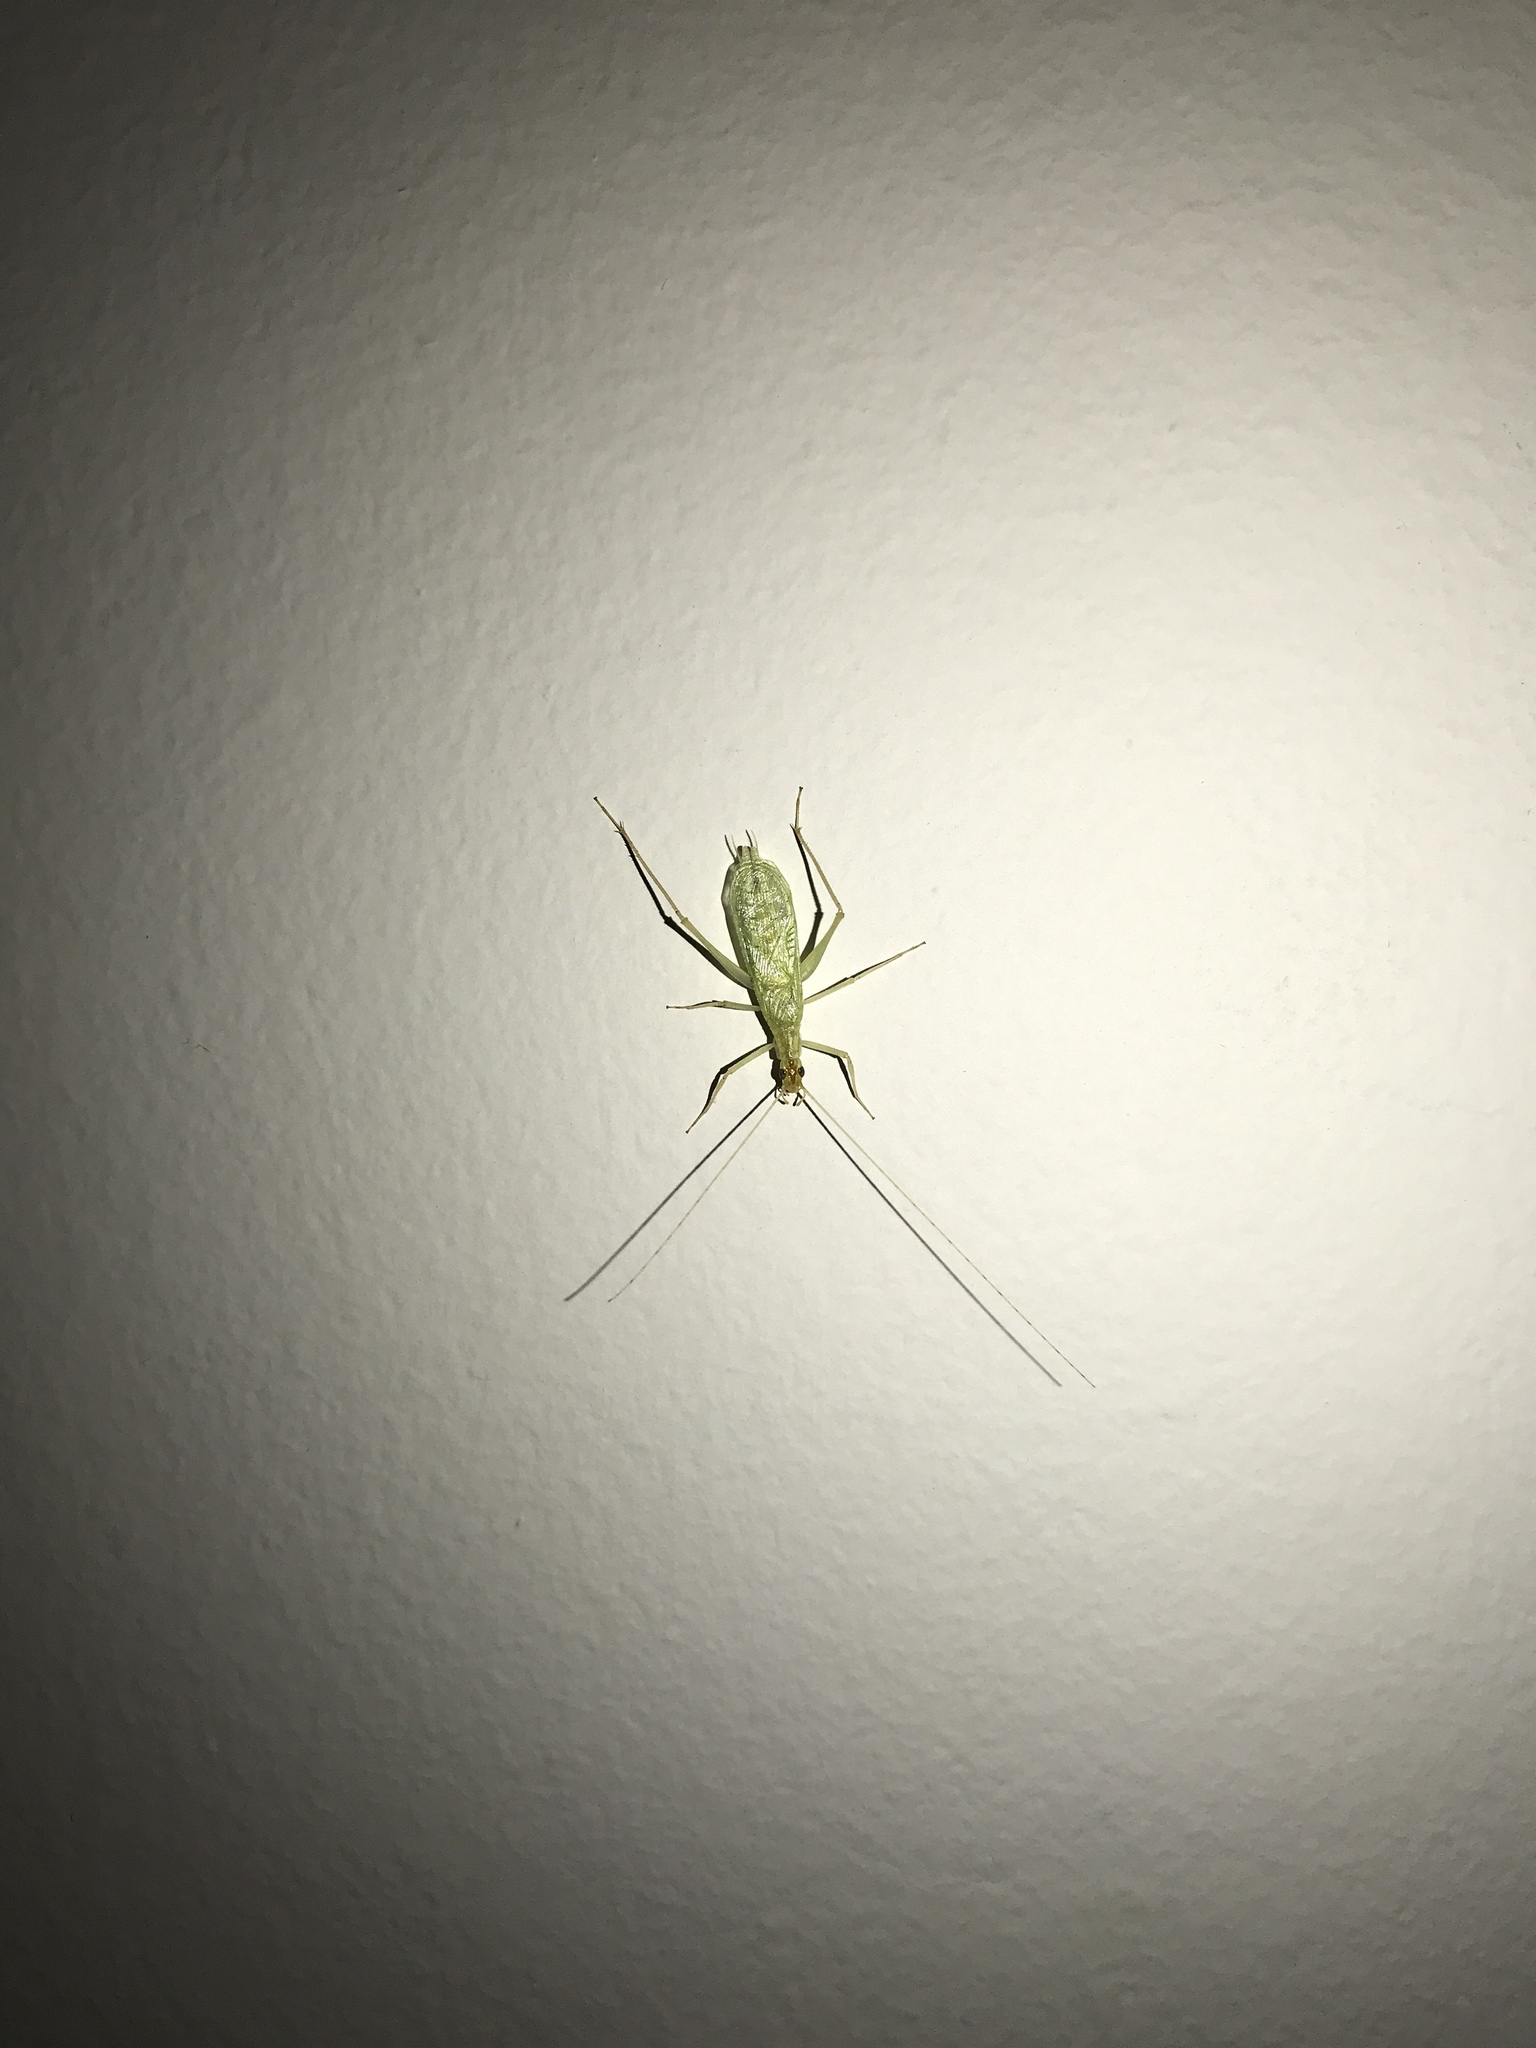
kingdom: Animalia
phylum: Arthropoda
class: Insecta
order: Orthoptera
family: Gryllidae
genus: Oecanthus
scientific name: Oecanthus niveus
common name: Narrow-winged tree cricket
